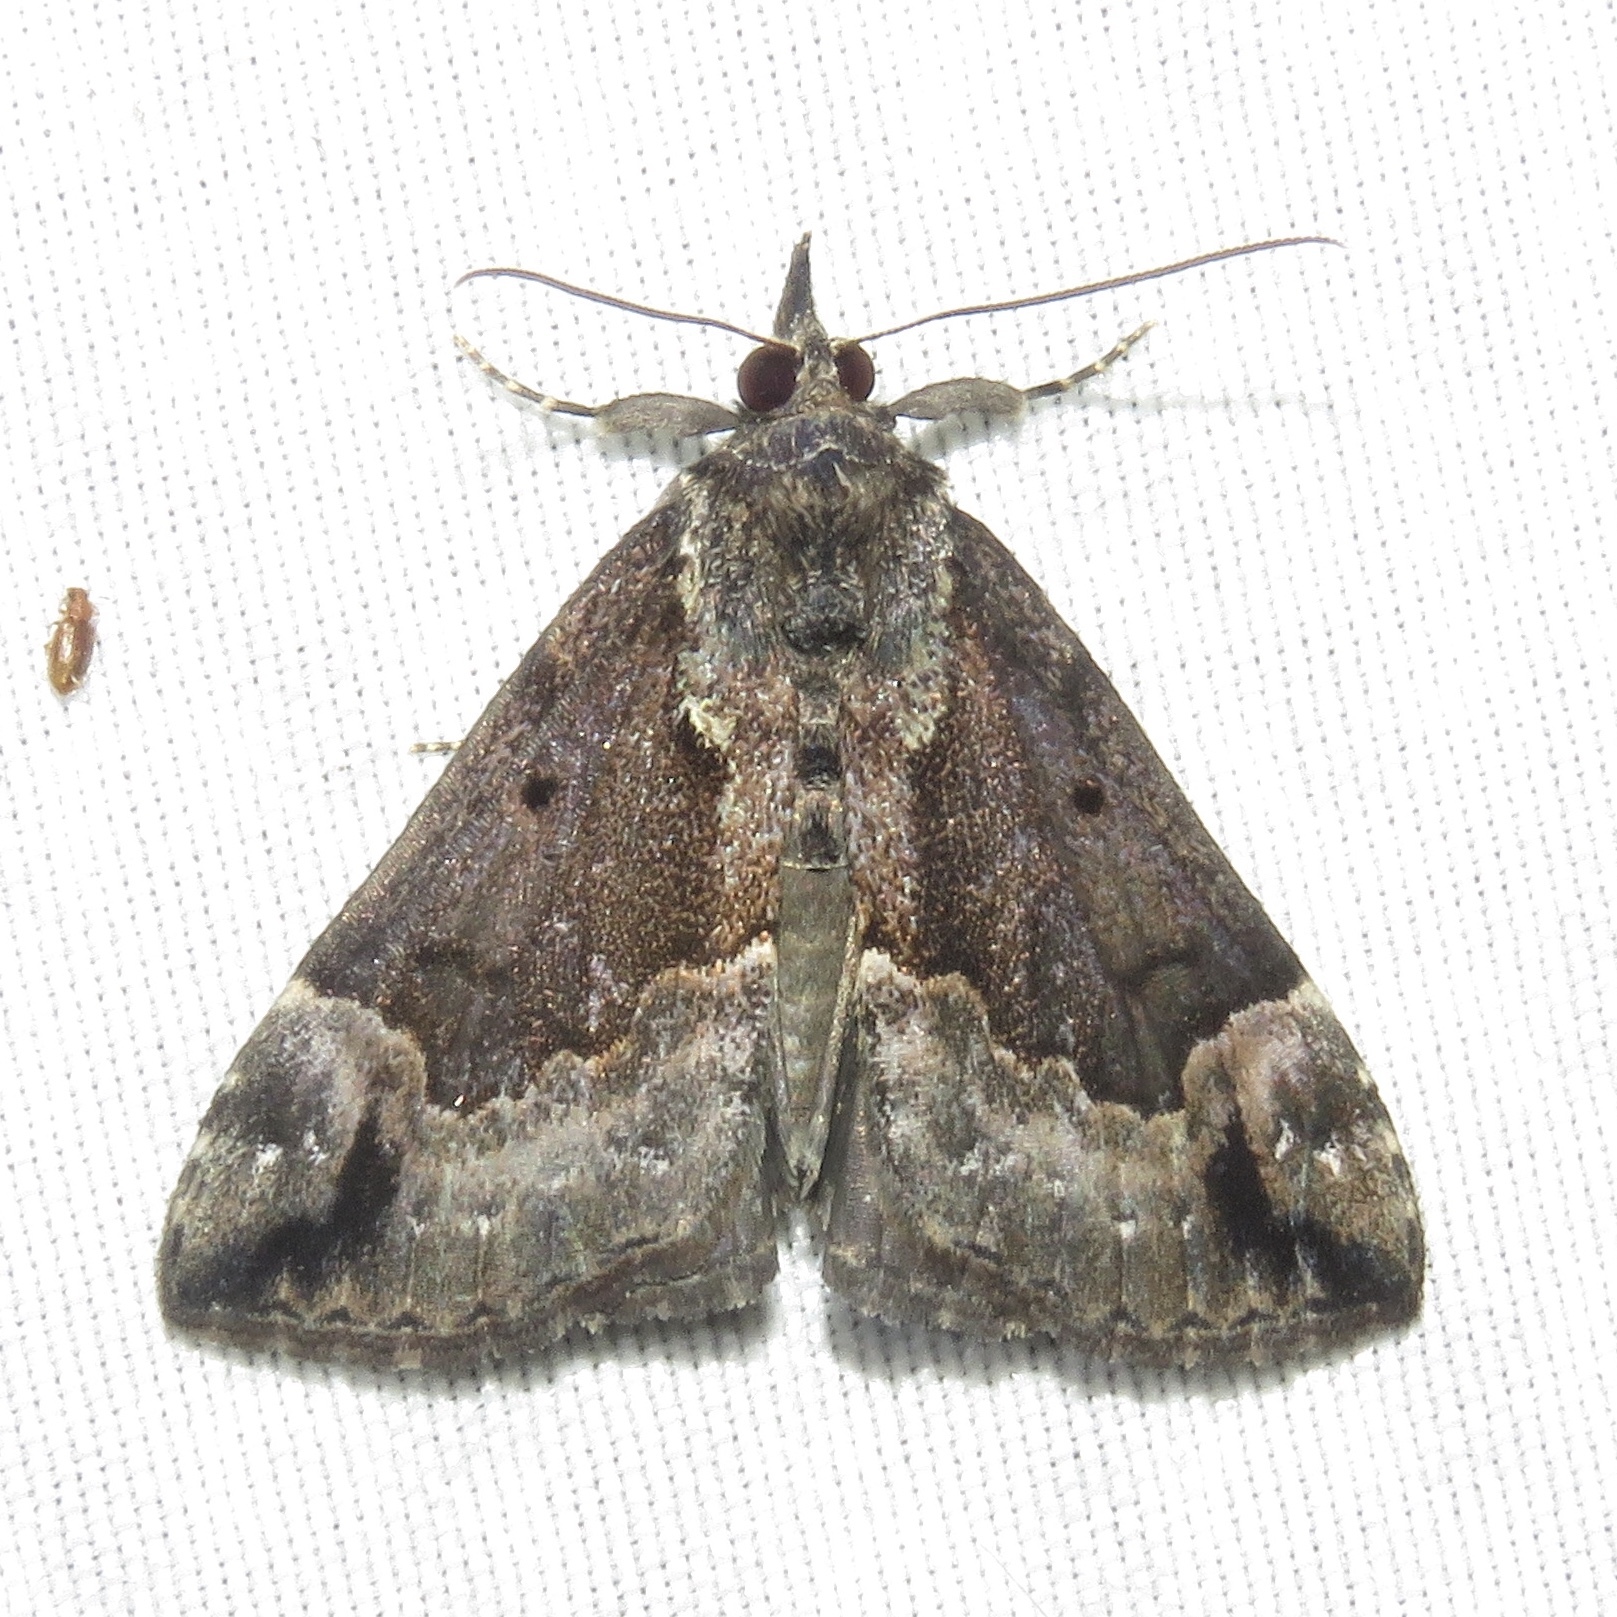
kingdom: Animalia
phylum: Arthropoda
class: Insecta
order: Lepidoptera
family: Erebidae
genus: Hypena
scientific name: Hypena baltimoralis
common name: Baltimore snout
